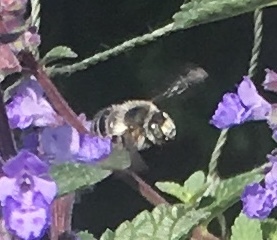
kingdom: Animalia
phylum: Arthropoda
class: Insecta
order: Hymenoptera
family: Apidae
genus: Anthophora
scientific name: Anthophora quadrimaculata
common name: Four-banded flower bee
